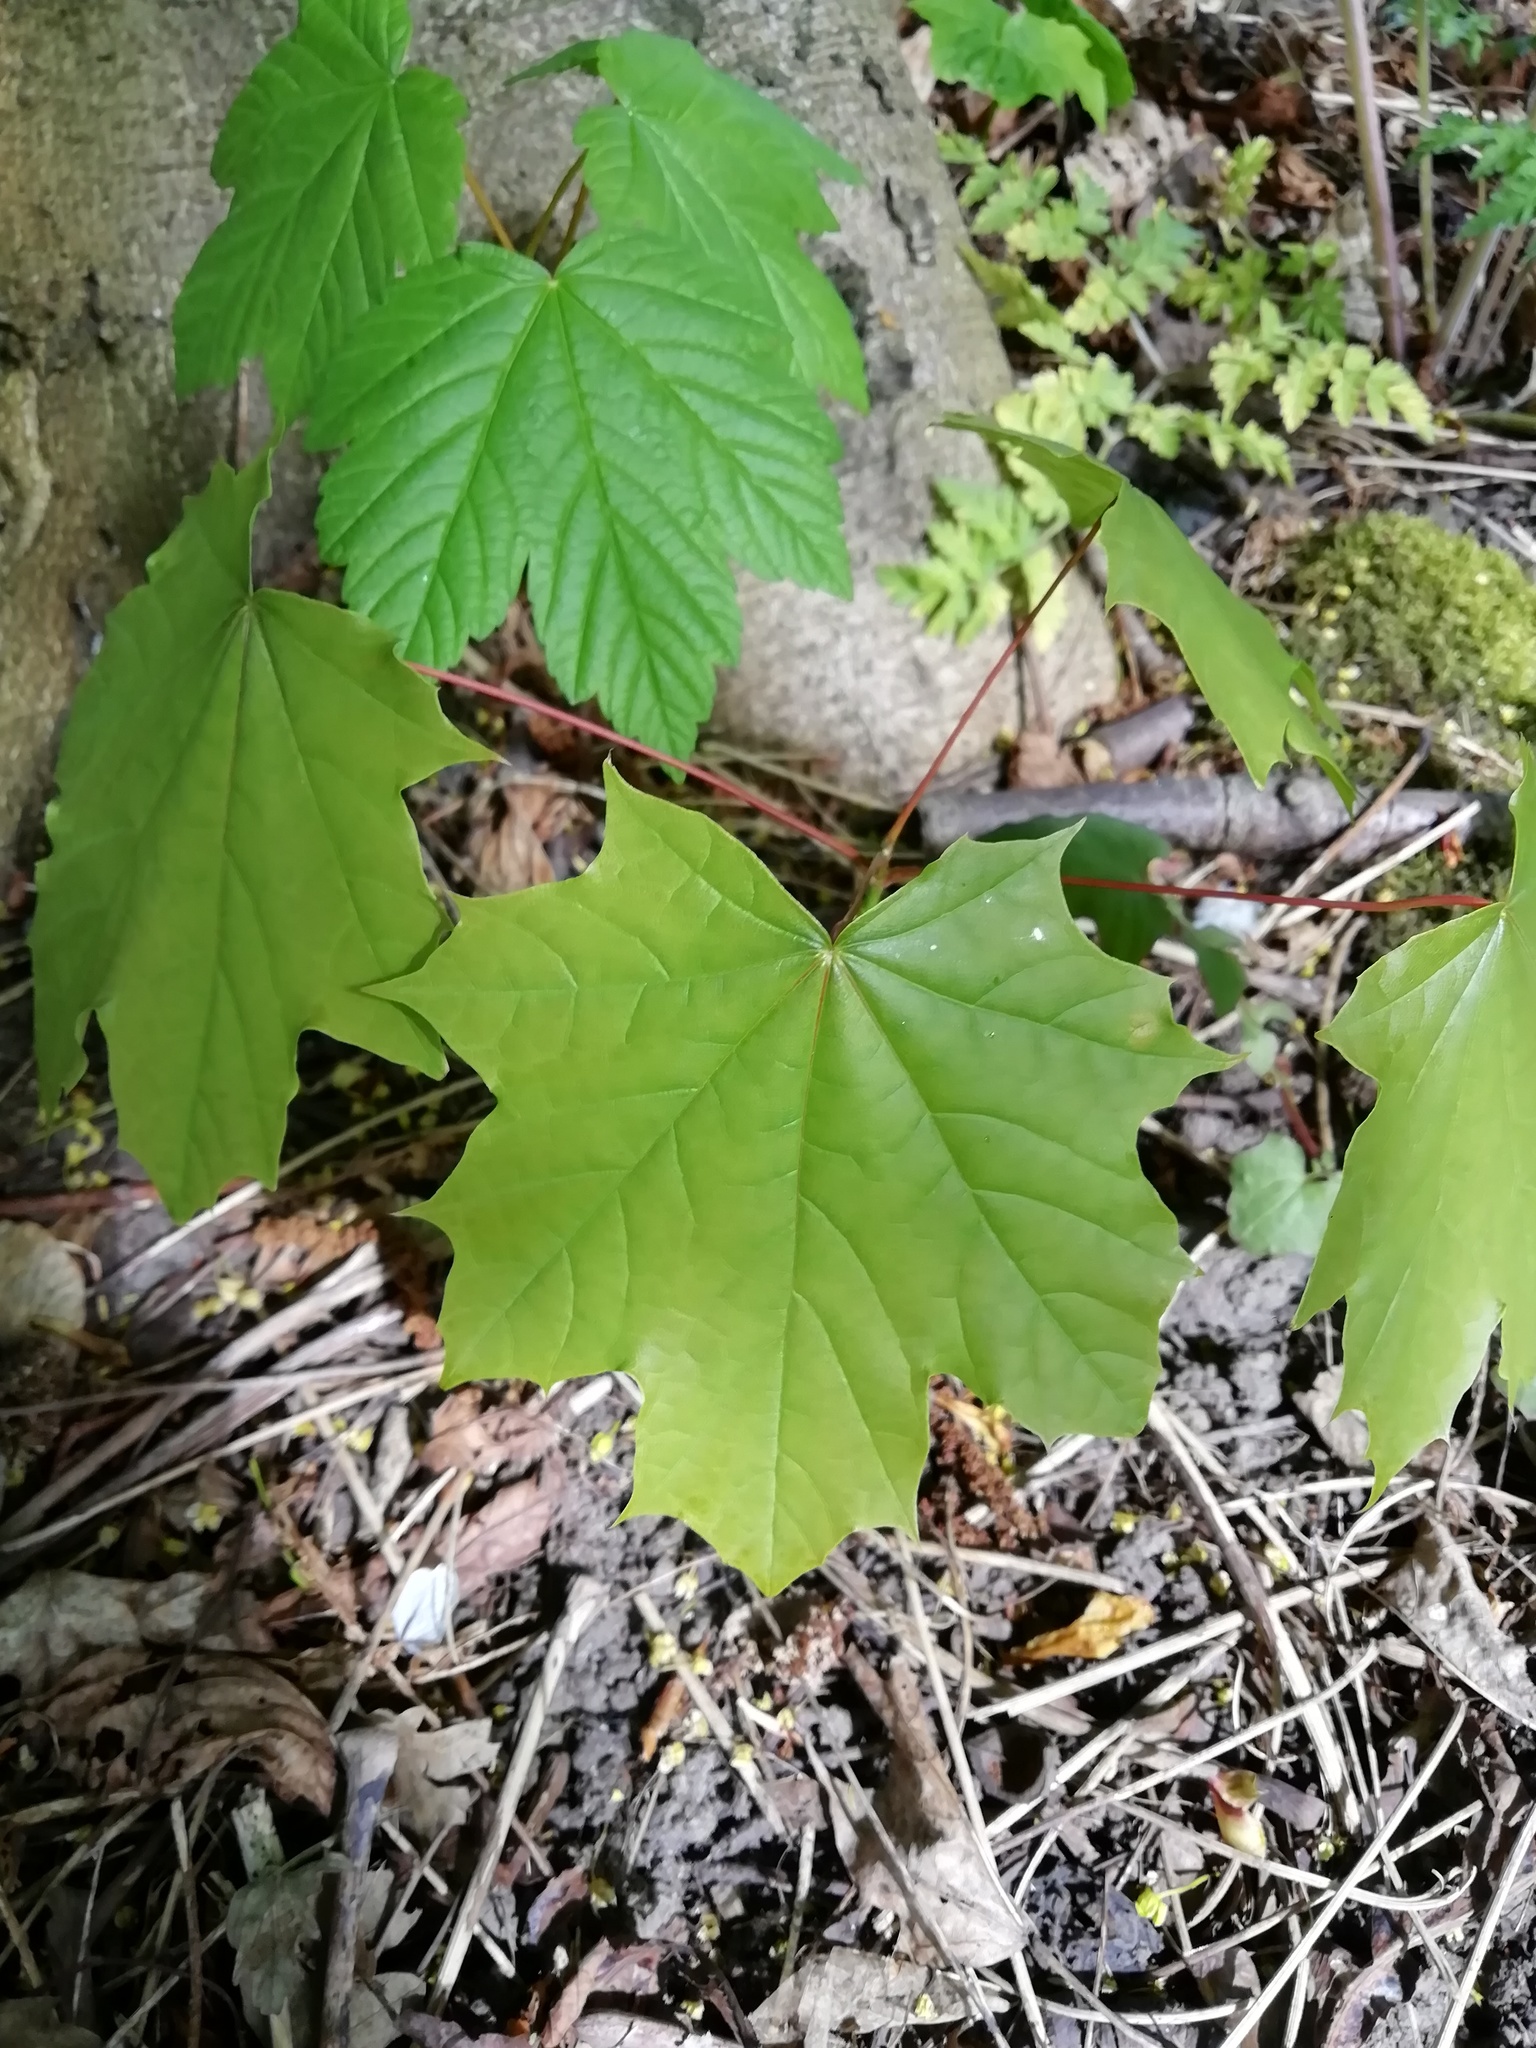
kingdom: Plantae
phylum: Tracheophyta
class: Magnoliopsida
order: Sapindales
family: Sapindaceae
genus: Acer
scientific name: Acer platanoides
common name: Norway maple
